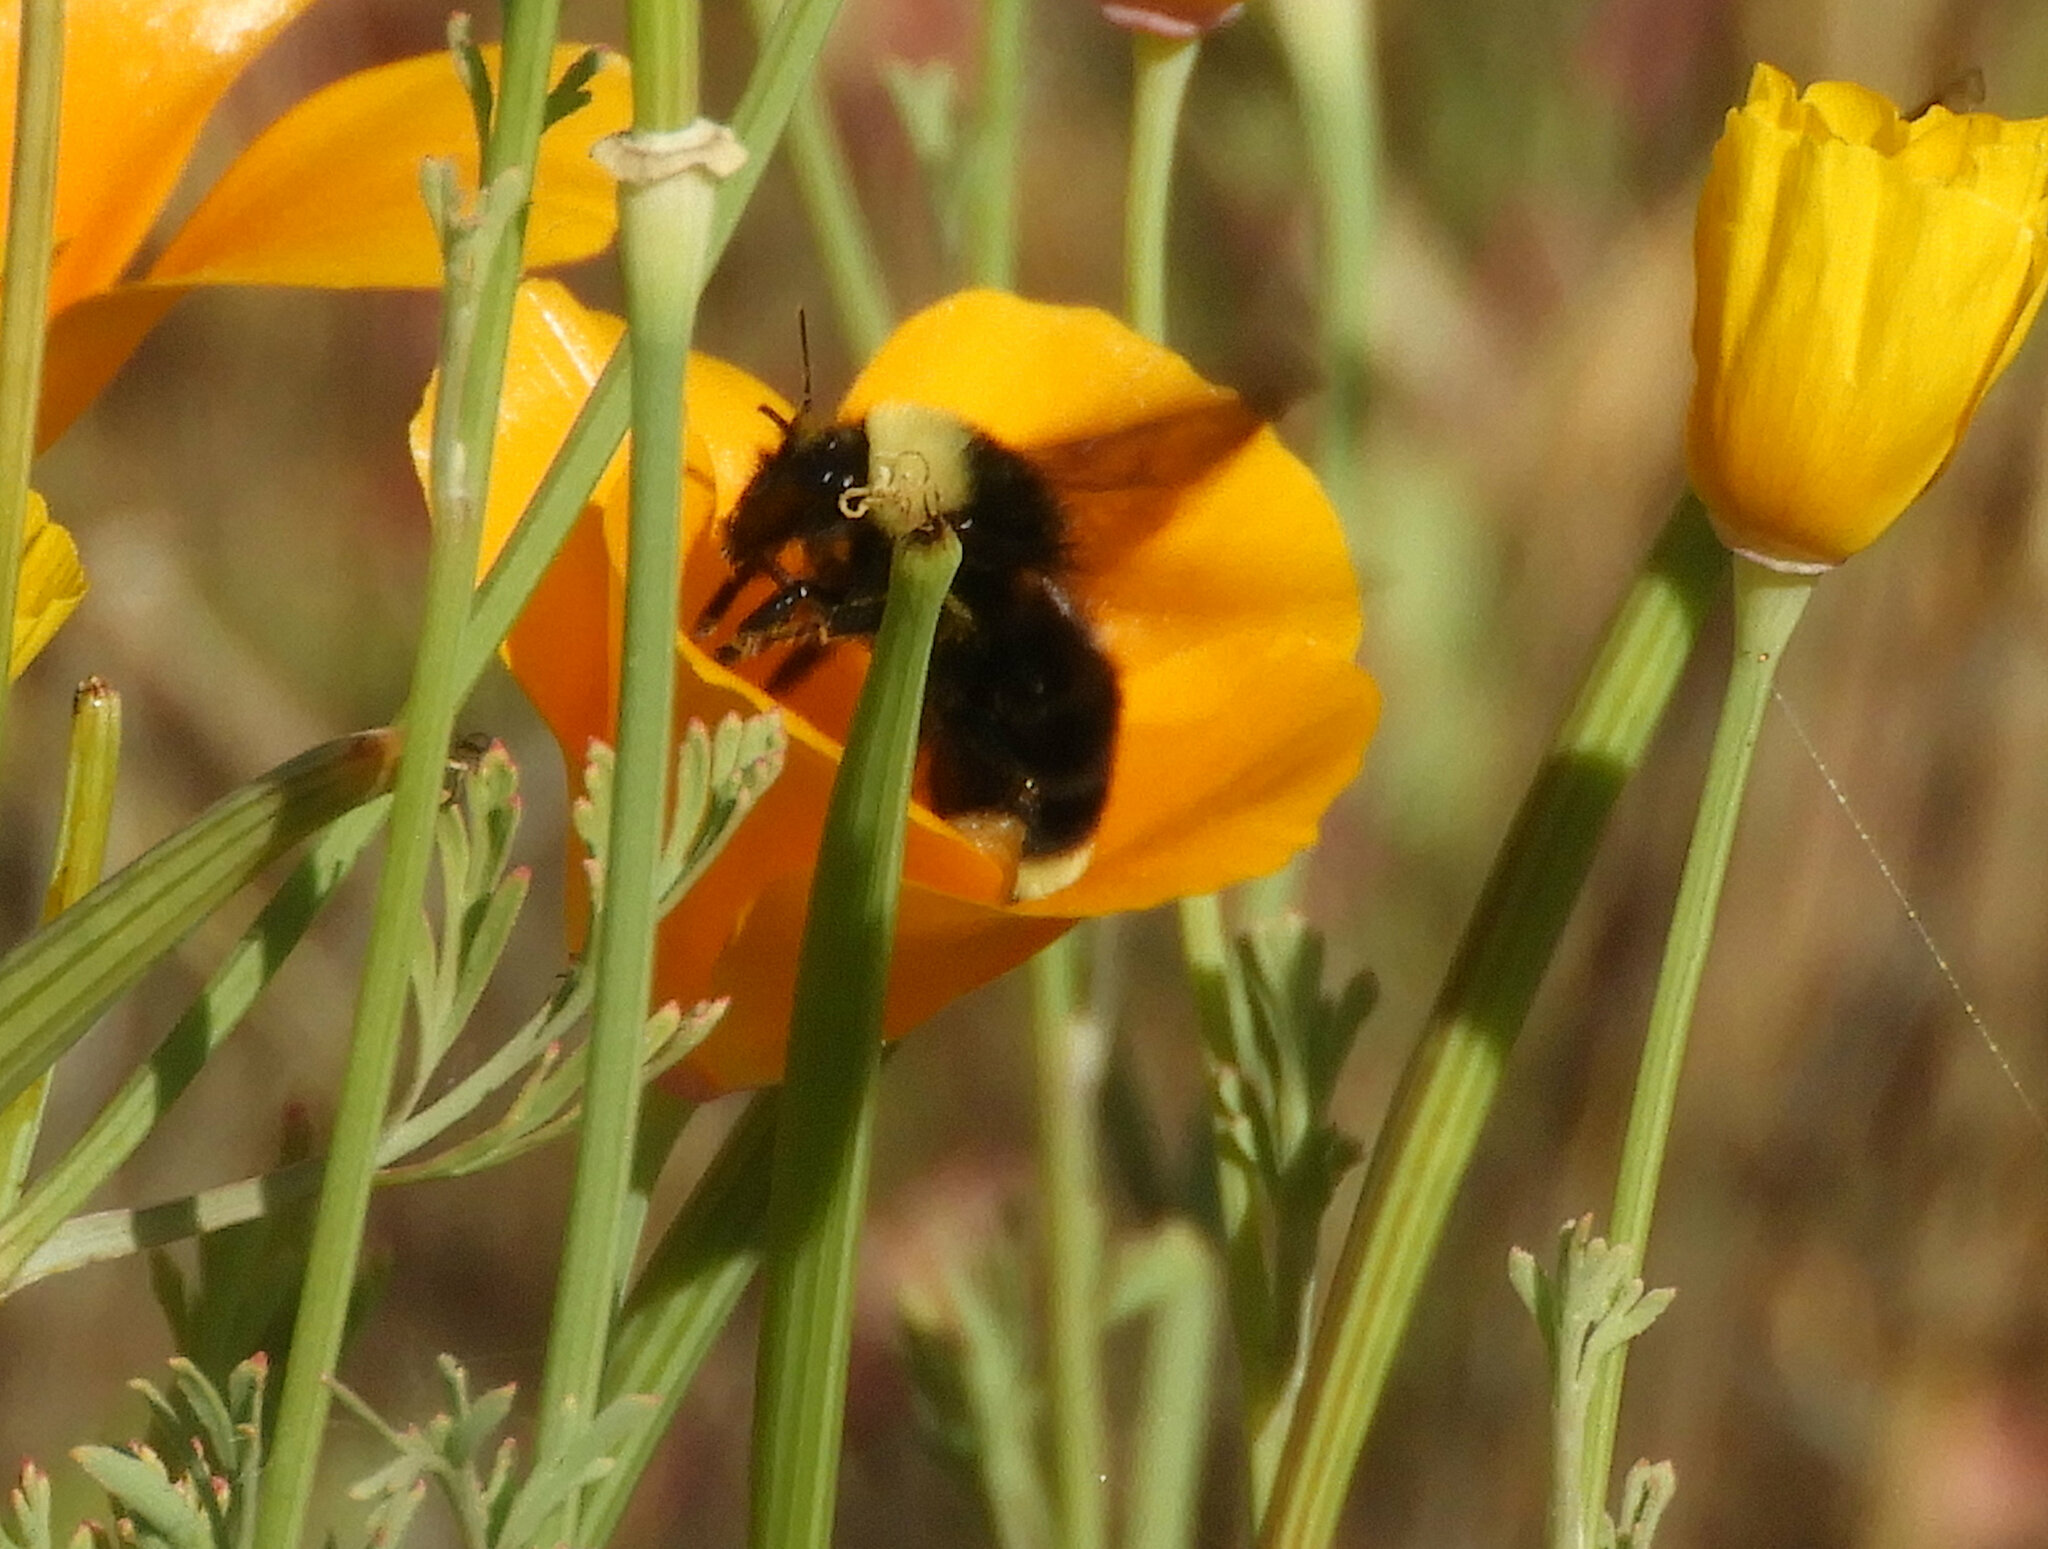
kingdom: Animalia
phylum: Arthropoda
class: Insecta
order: Hymenoptera
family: Apidae
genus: Bombus
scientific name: Bombus californicus
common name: California bumble bee
